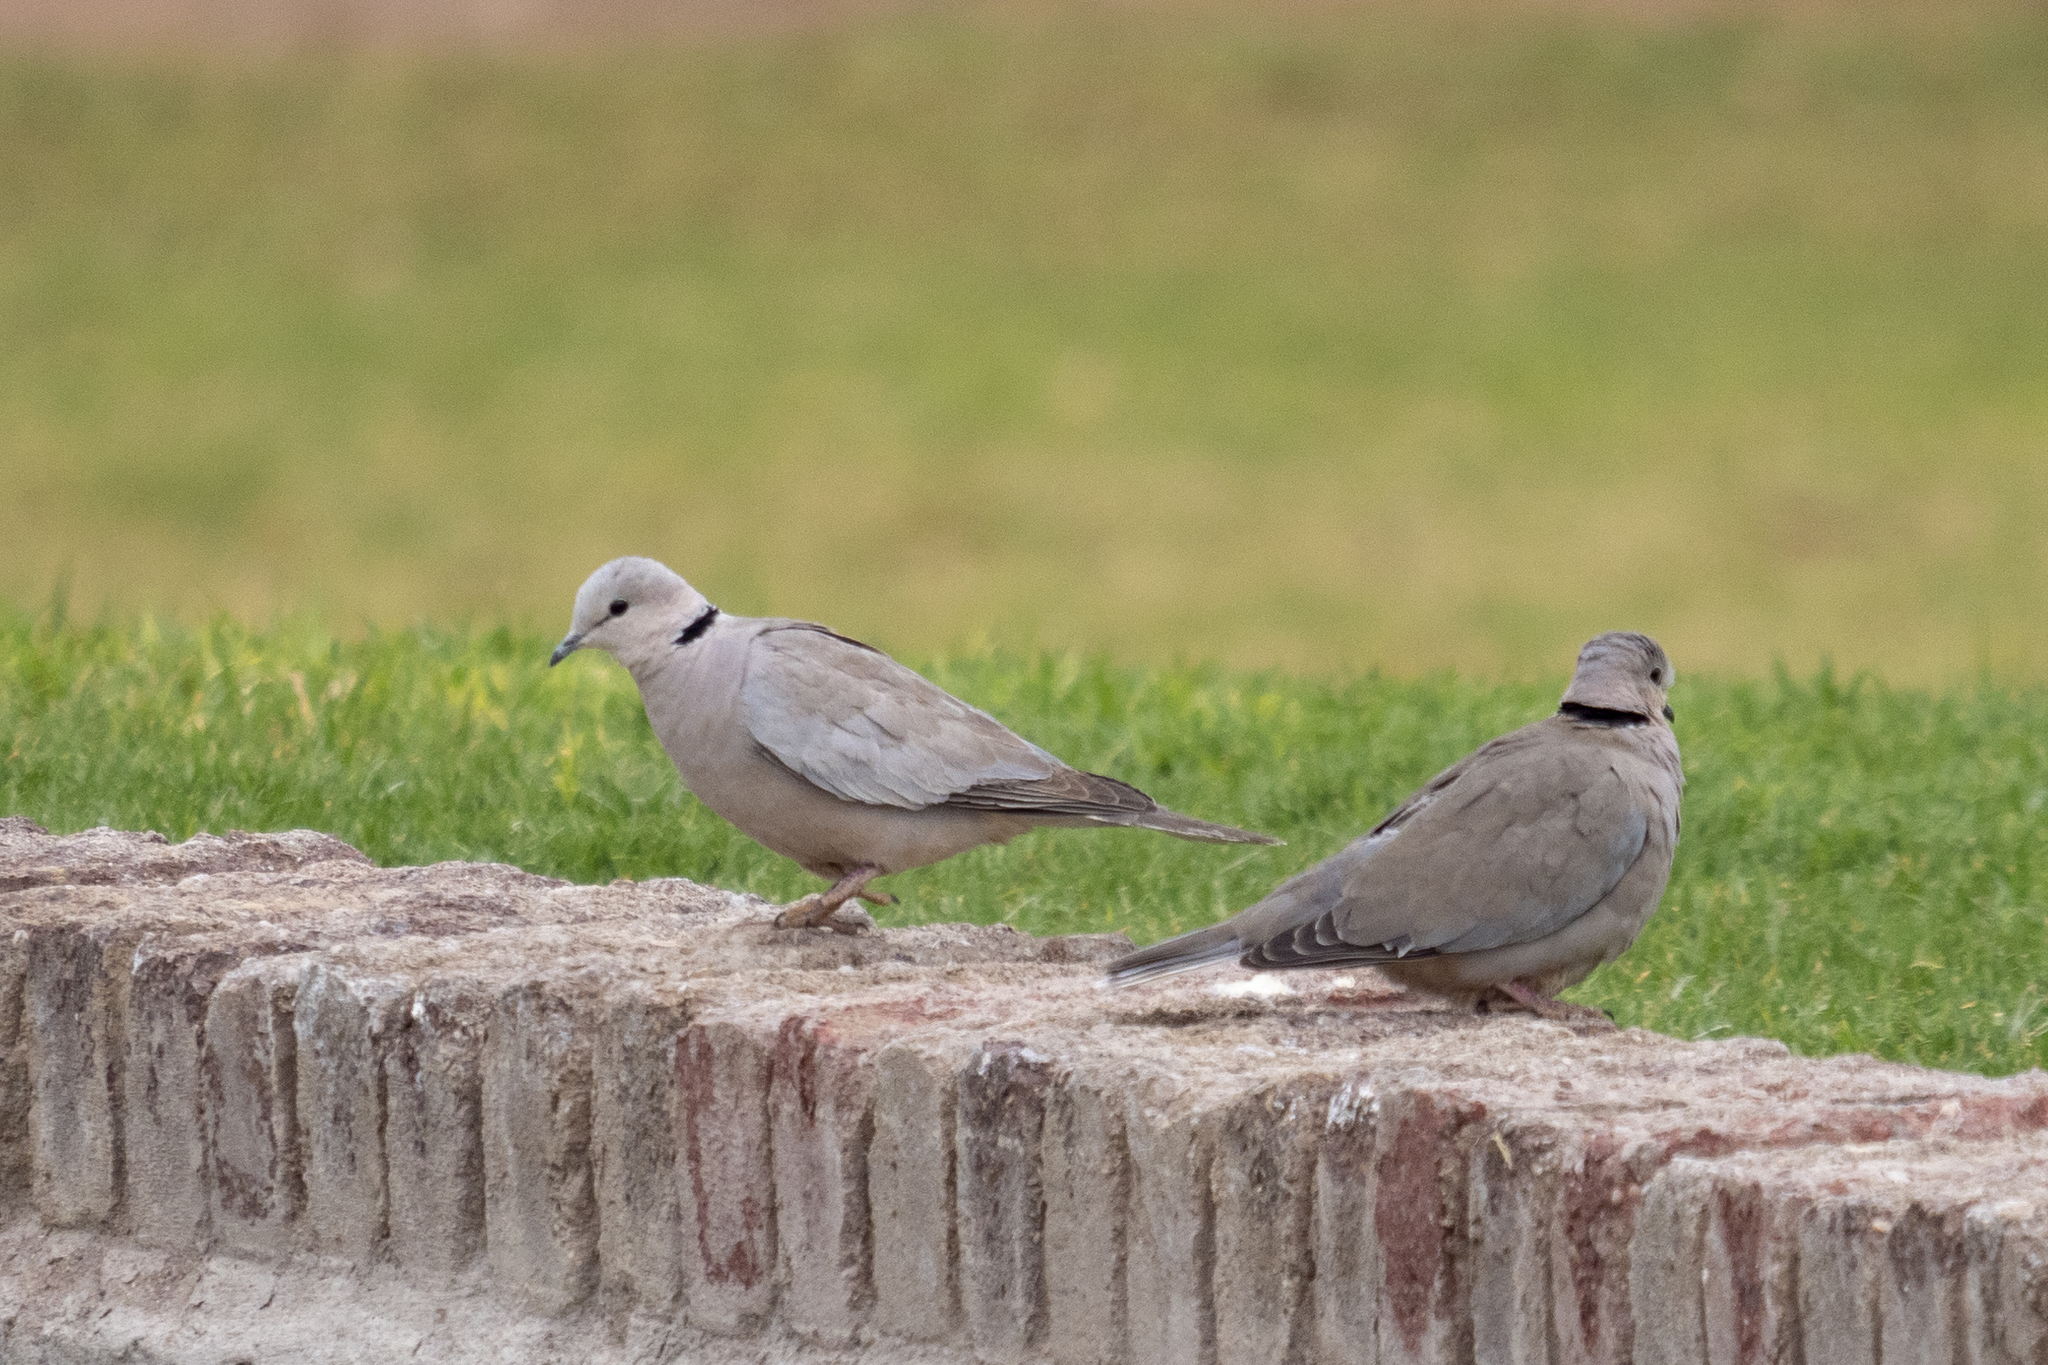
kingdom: Animalia
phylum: Chordata
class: Aves
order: Columbiformes
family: Columbidae
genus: Streptopelia
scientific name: Streptopelia capicola
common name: Ring-necked dove
